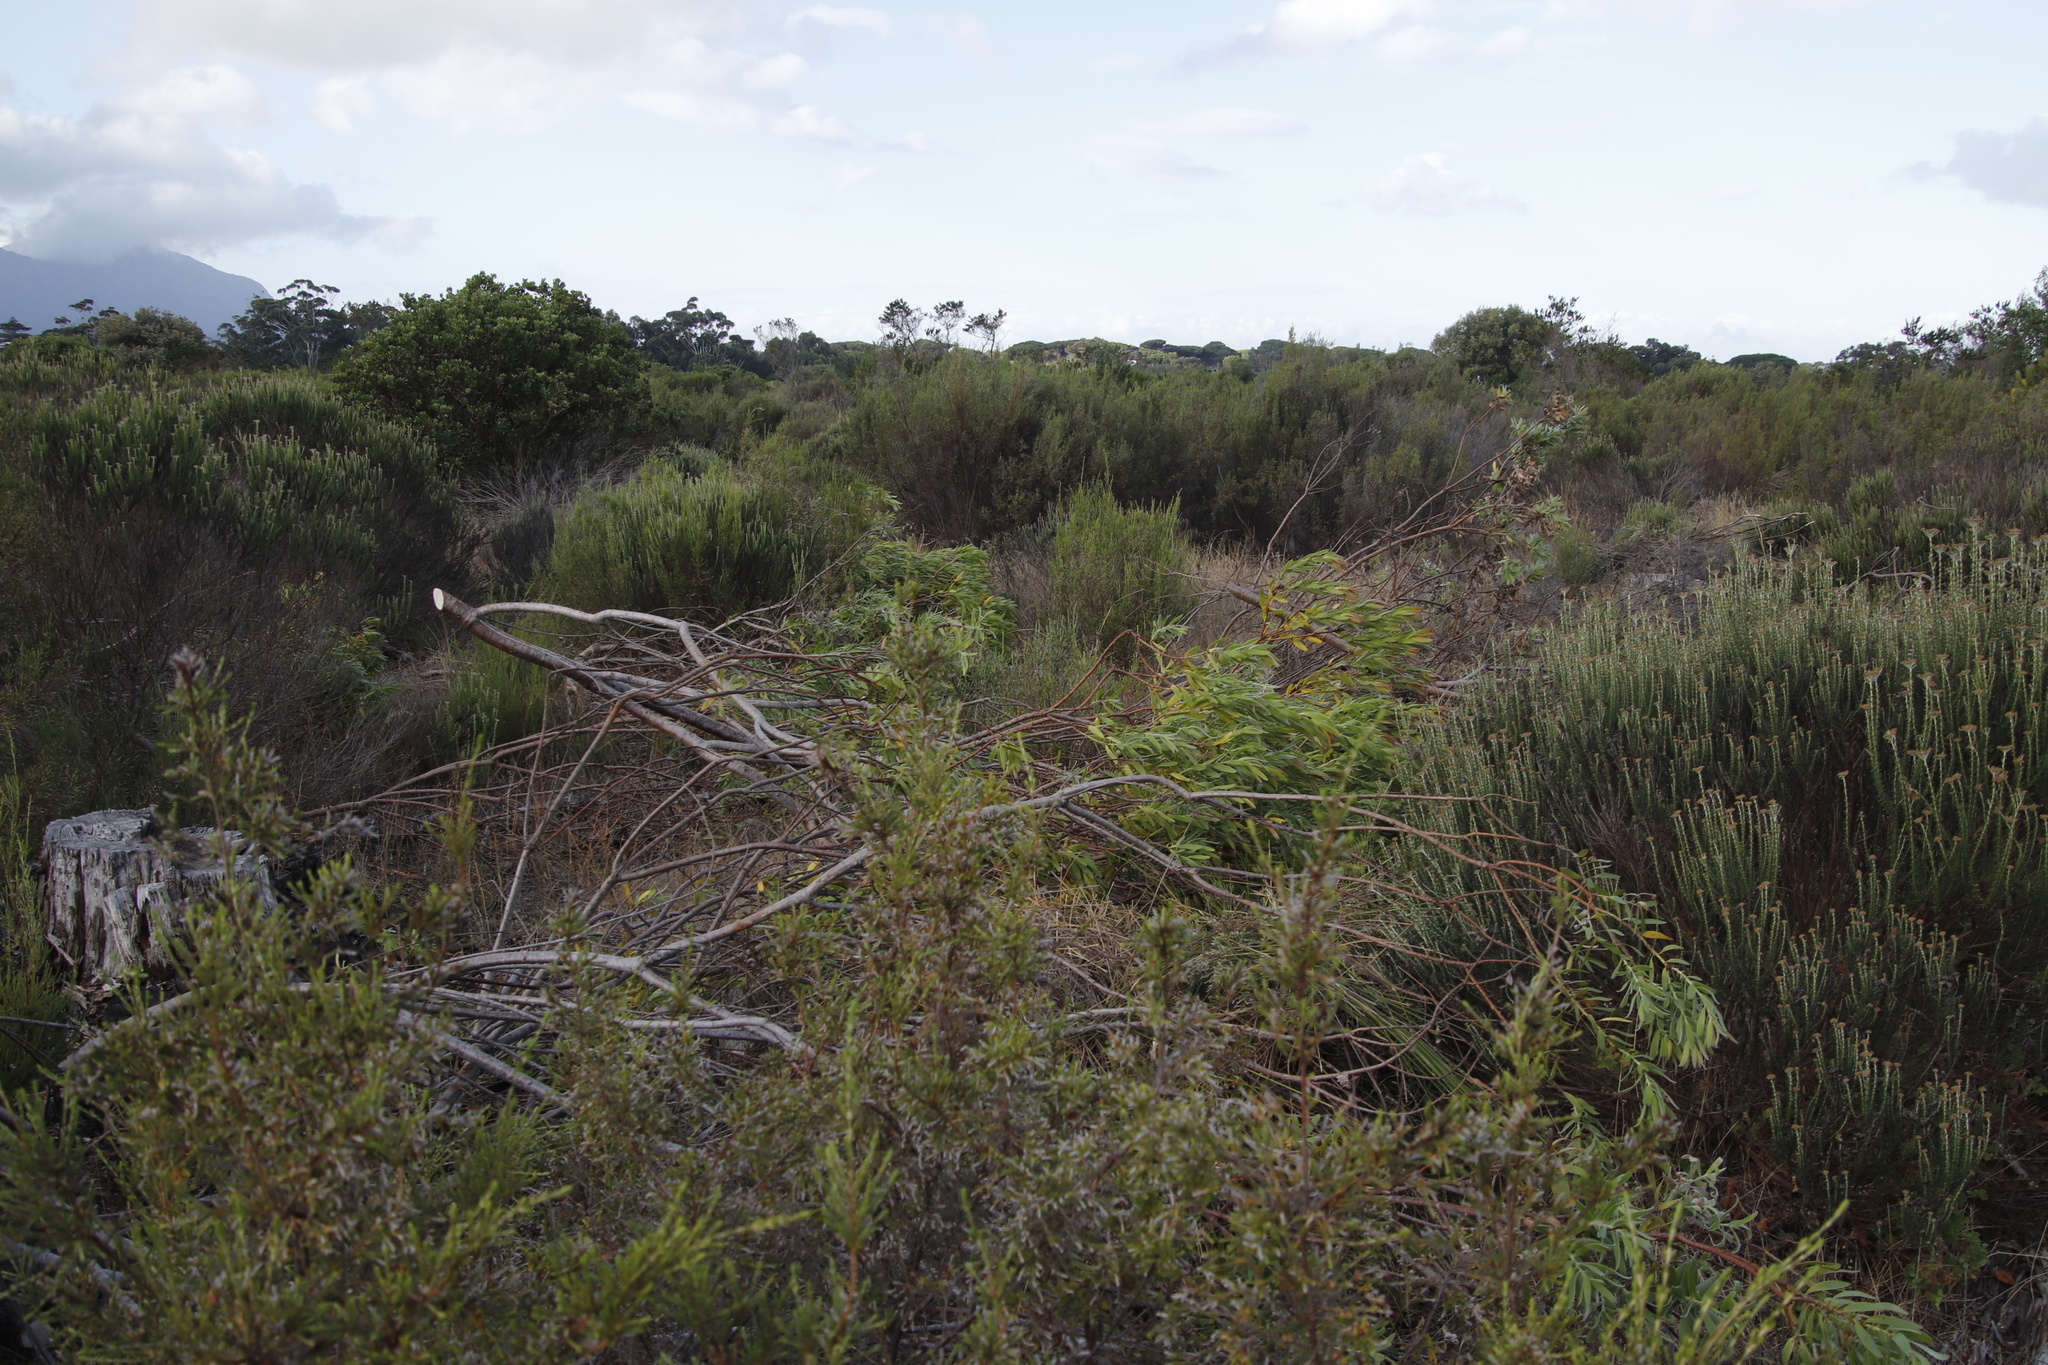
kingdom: Plantae
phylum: Tracheophyta
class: Magnoliopsida
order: Proteales
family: Proteaceae
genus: Leucadendron
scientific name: Leucadendron laureolum
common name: Golden sunshinebush
